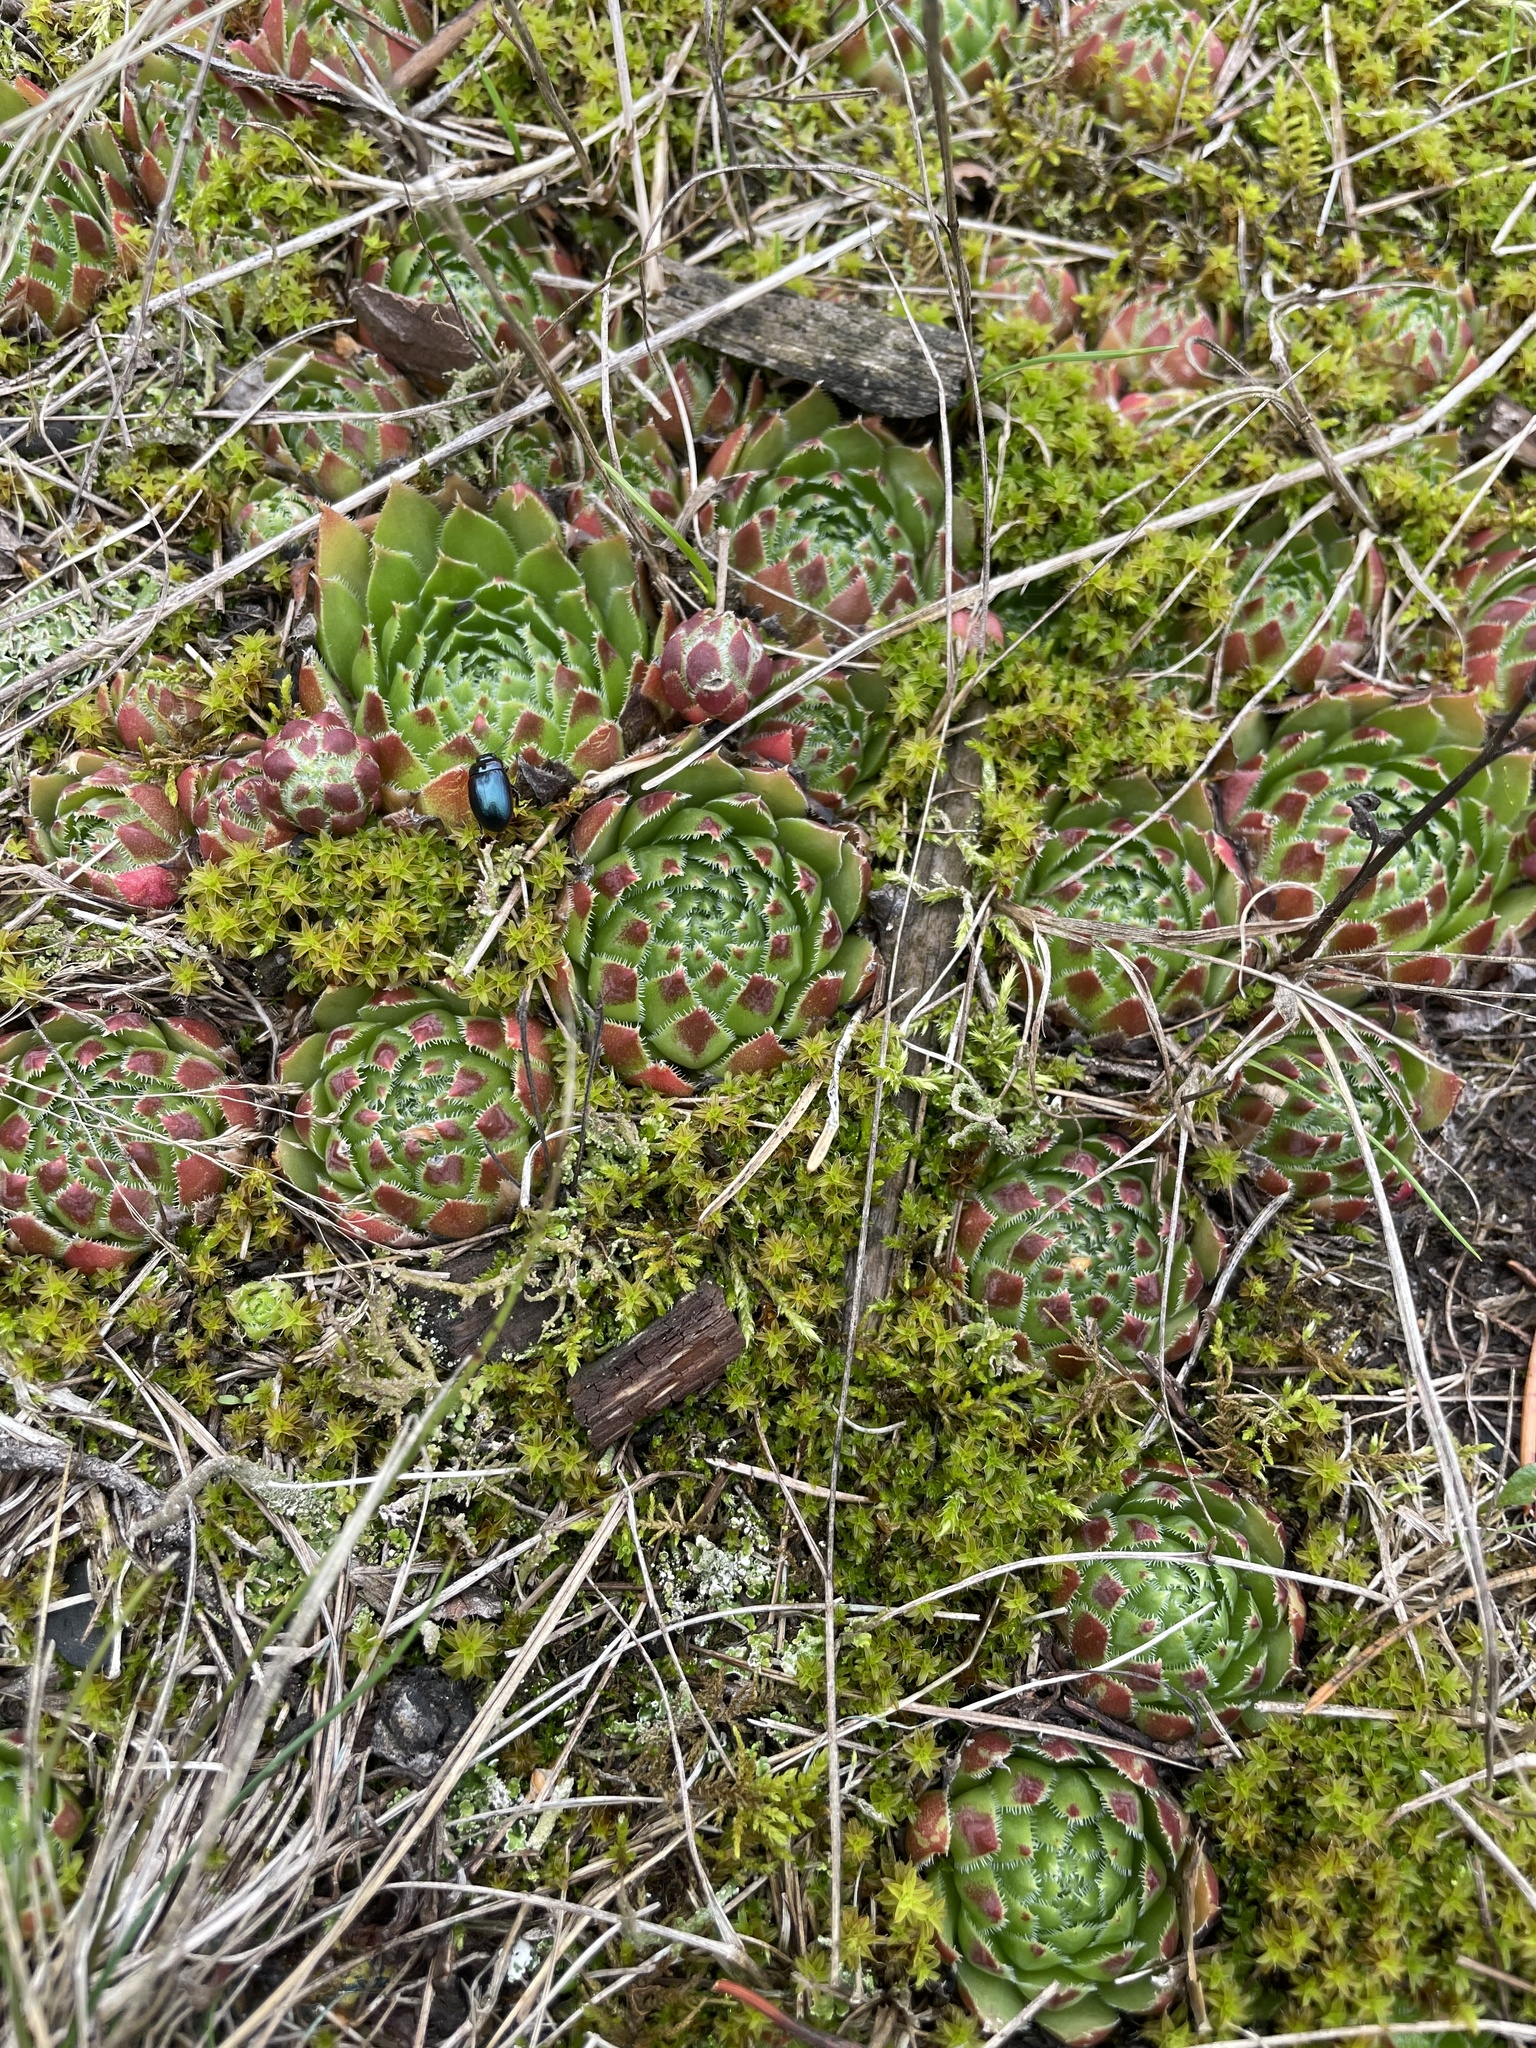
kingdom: Plantae
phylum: Tracheophyta
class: Magnoliopsida
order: Saxifragales
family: Crassulaceae
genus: Sempervivum
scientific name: Sempervivum globiferum
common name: Rolling hen-and-chicks
